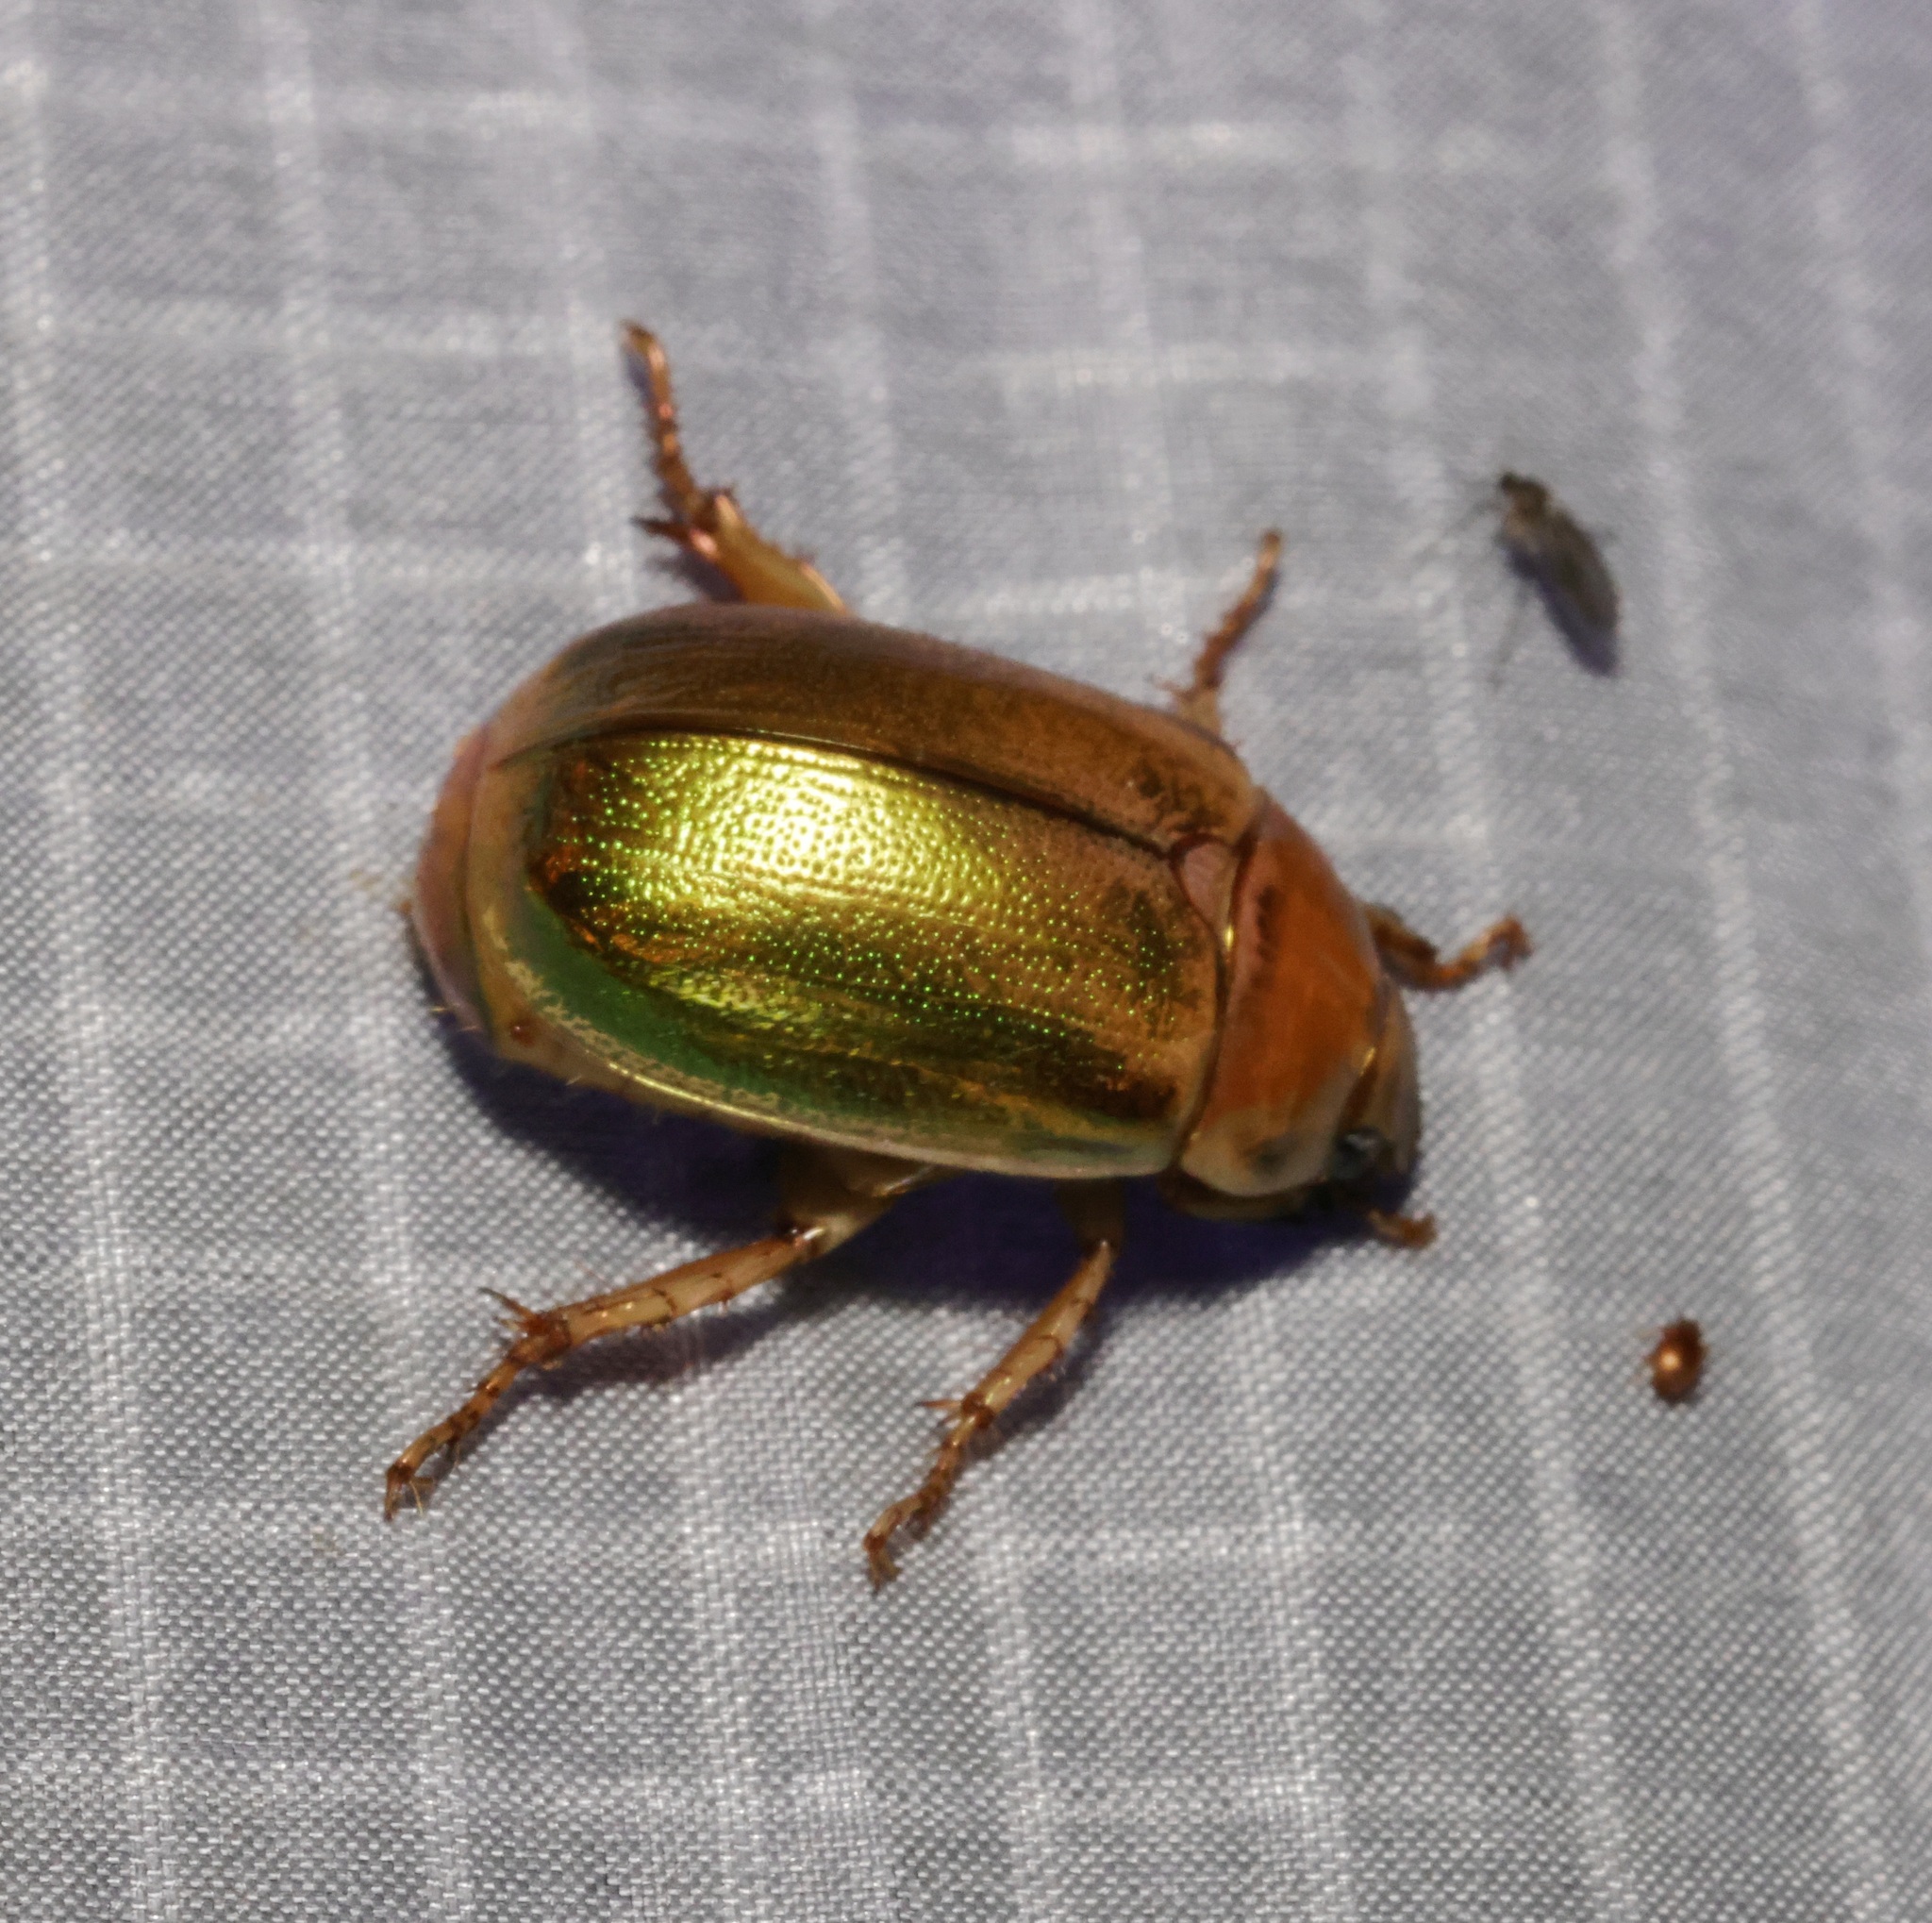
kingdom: Animalia
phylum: Arthropoda
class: Insecta
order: Coleoptera
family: Scarabaeidae
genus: Mimela
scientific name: Mimela specularis
